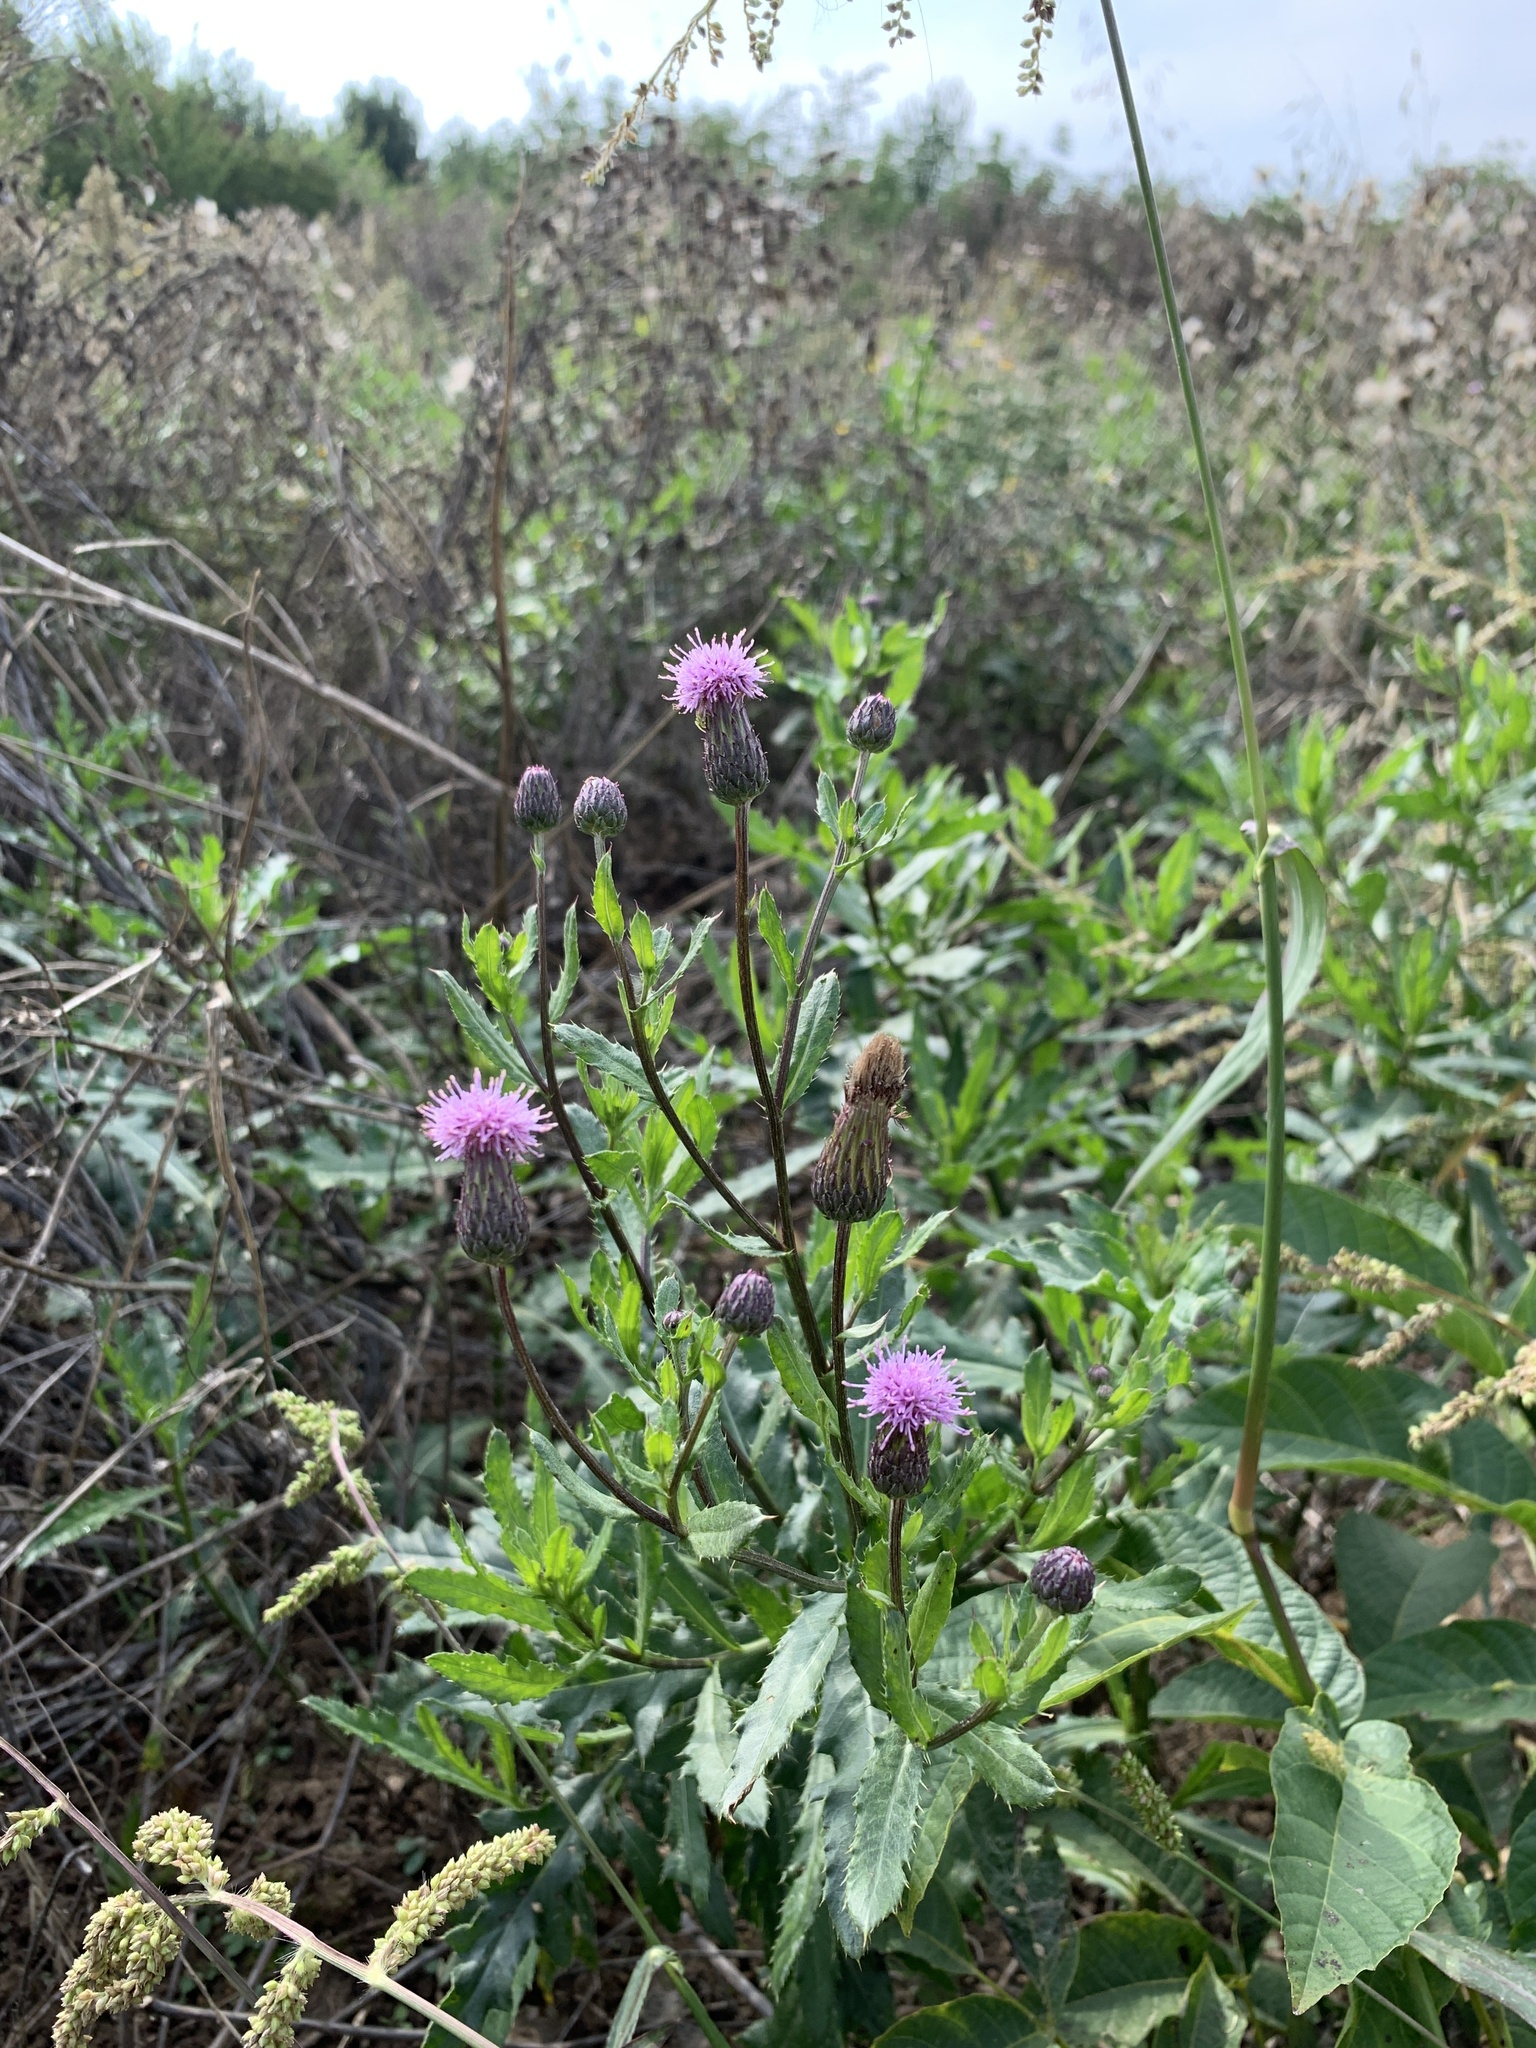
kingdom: Plantae
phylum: Tracheophyta
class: Magnoliopsida
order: Asterales
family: Asteraceae
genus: Cirsium
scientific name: Cirsium arvense
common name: Creeping thistle
